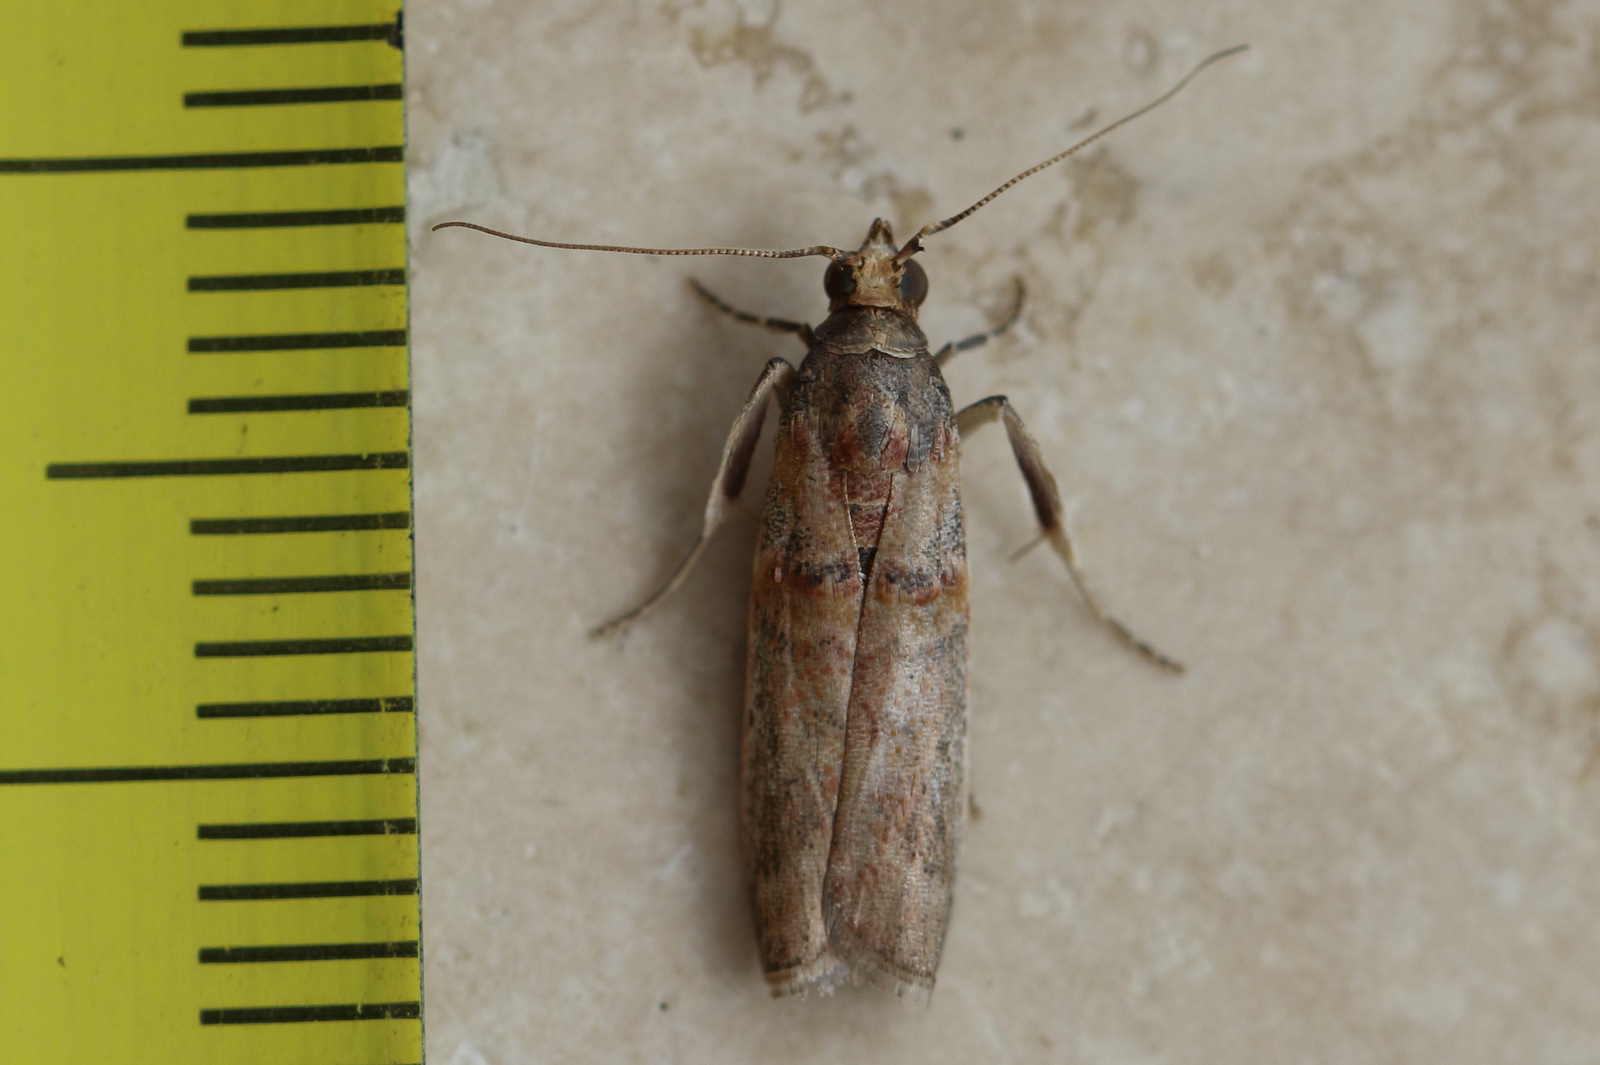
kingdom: Animalia
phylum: Arthropoda
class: Insecta
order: Lepidoptera
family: Pyralidae
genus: Etiella
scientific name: Etiella behrii
